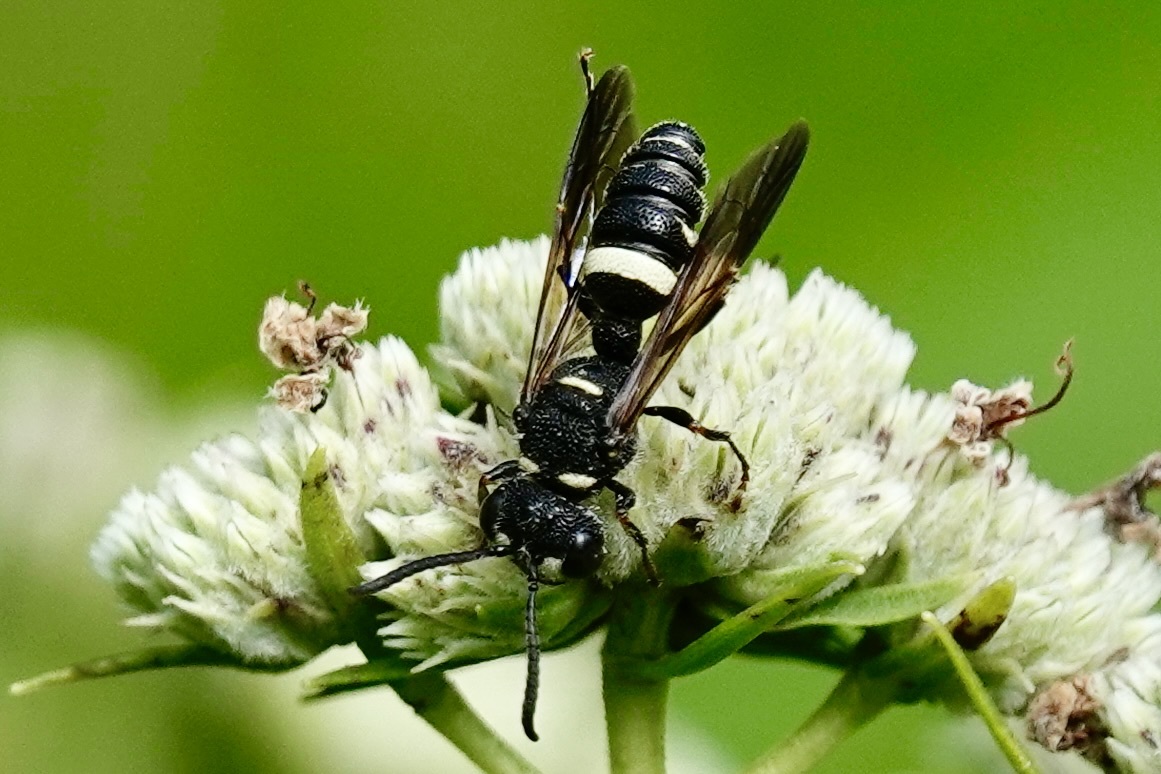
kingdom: Animalia
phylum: Arthropoda
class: Insecta
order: Hymenoptera
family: Crabronidae
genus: Cerceris
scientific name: Cerceris fumipennis
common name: Smokey-winged beetle bandit wasp
